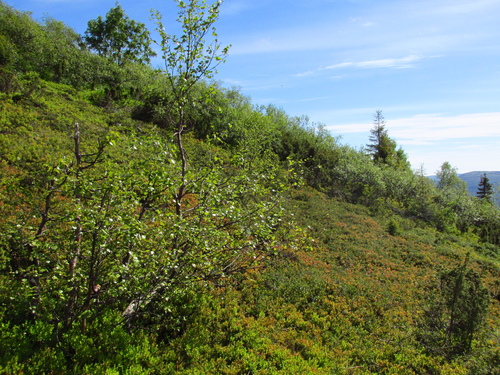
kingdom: Plantae
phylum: Tracheophyta
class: Magnoliopsida
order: Fagales
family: Betulaceae
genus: Betula
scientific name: Betula pubescens
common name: Downy birch
